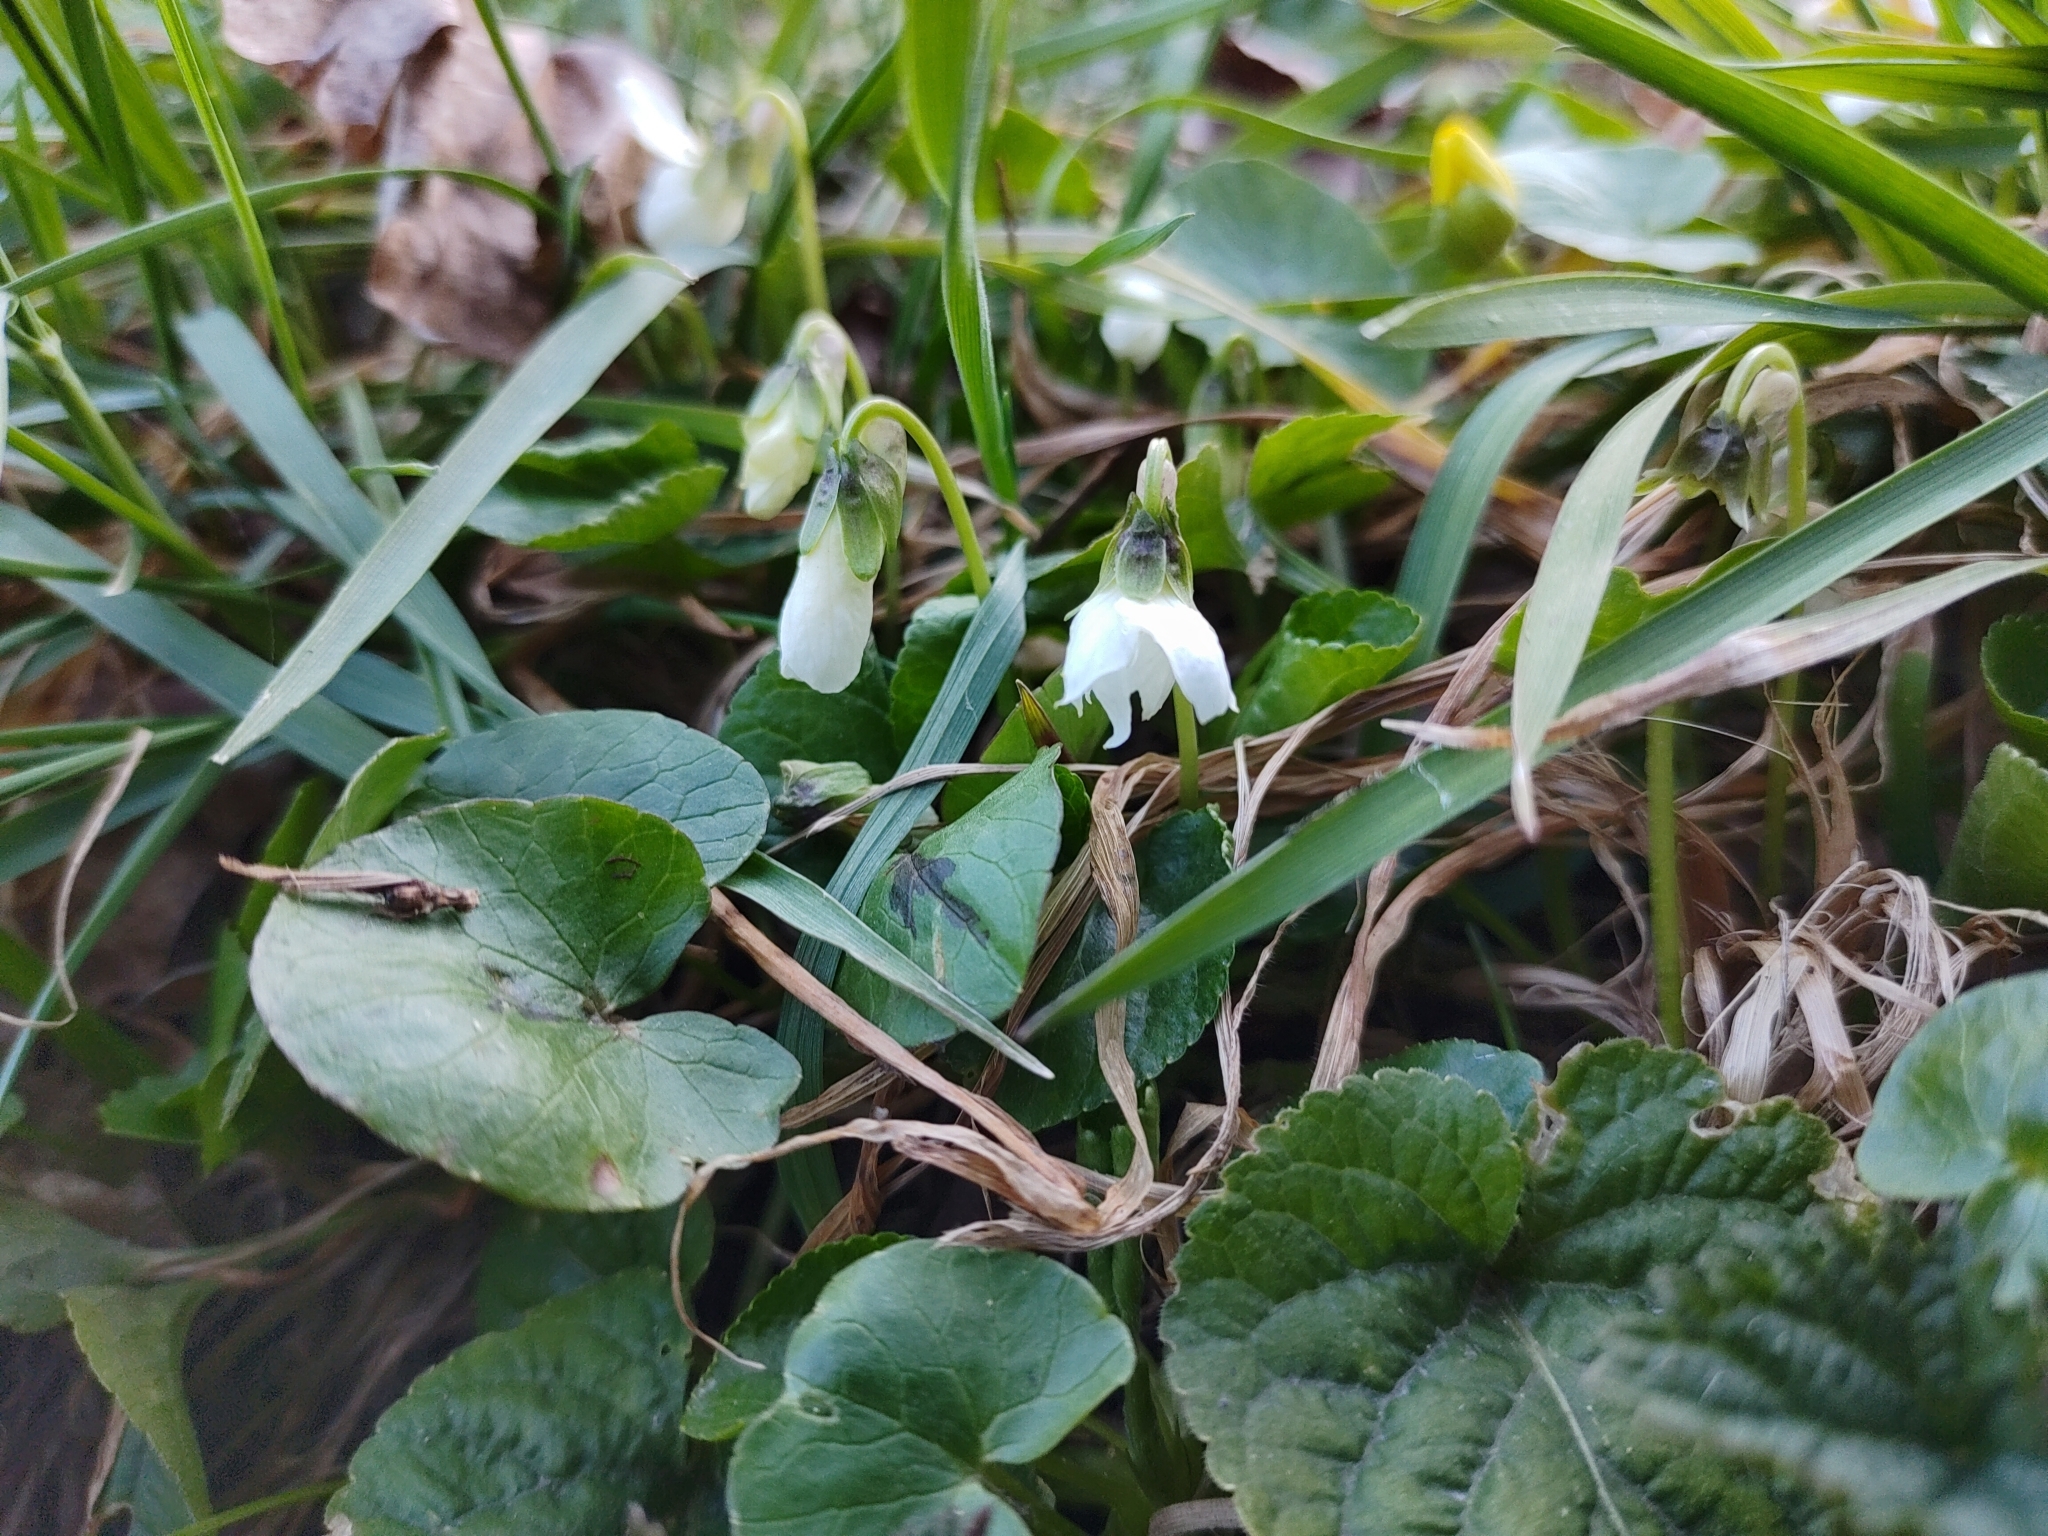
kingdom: Plantae
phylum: Tracheophyta
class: Magnoliopsida
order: Malpighiales
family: Violaceae
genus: Viola
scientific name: Viola odorata
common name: Sweet violet
